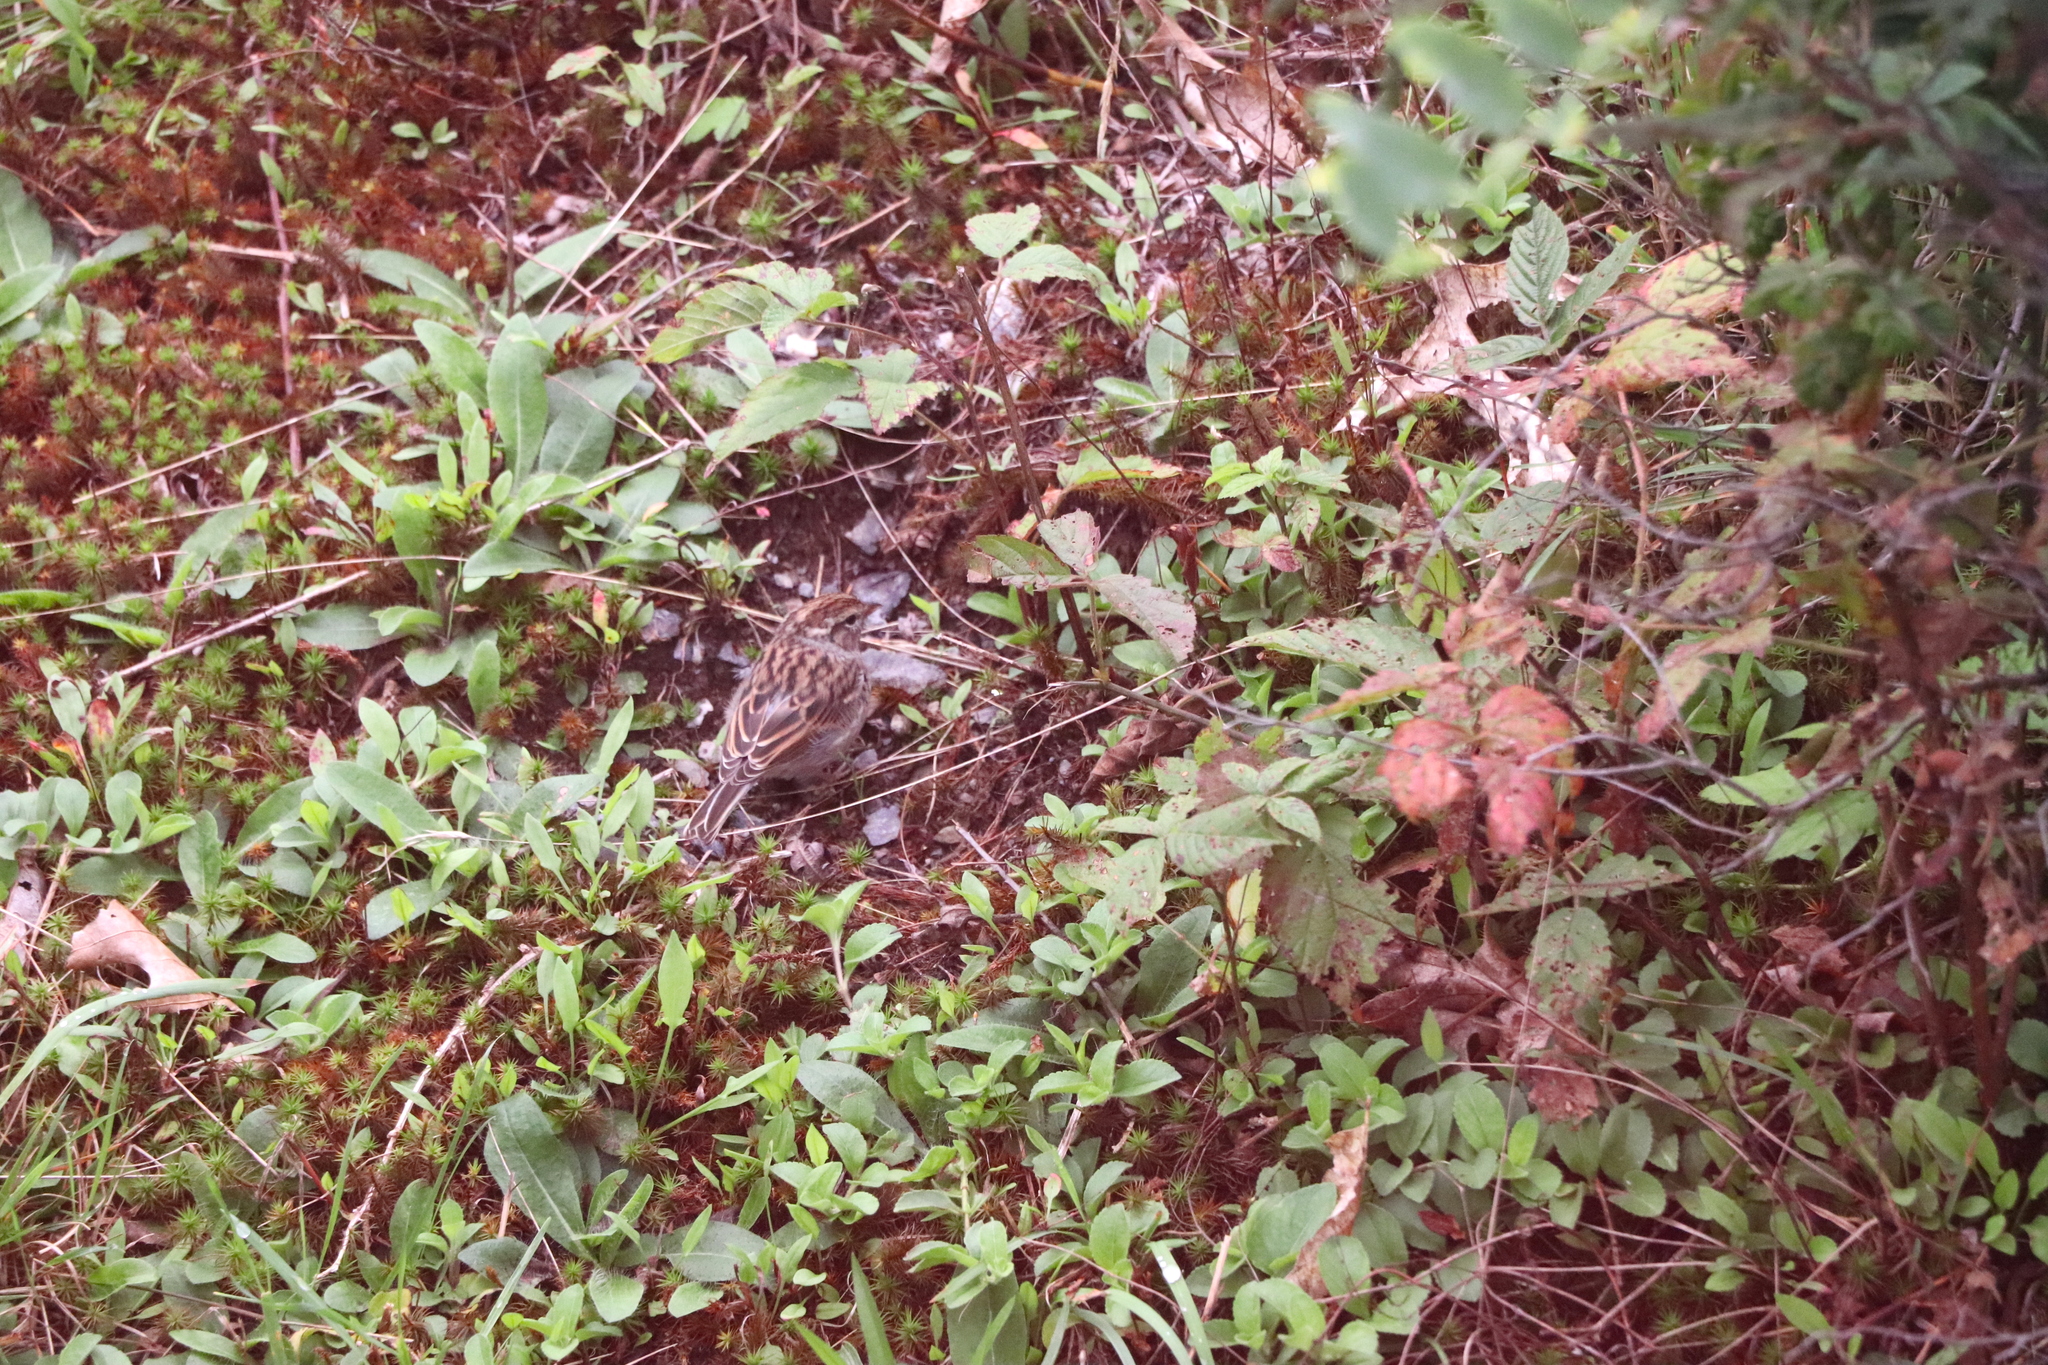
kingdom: Animalia
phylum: Chordata
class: Aves
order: Passeriformes
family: Passerellidae
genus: Spizella
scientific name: Spizella passerina
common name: Chipping sparrow
